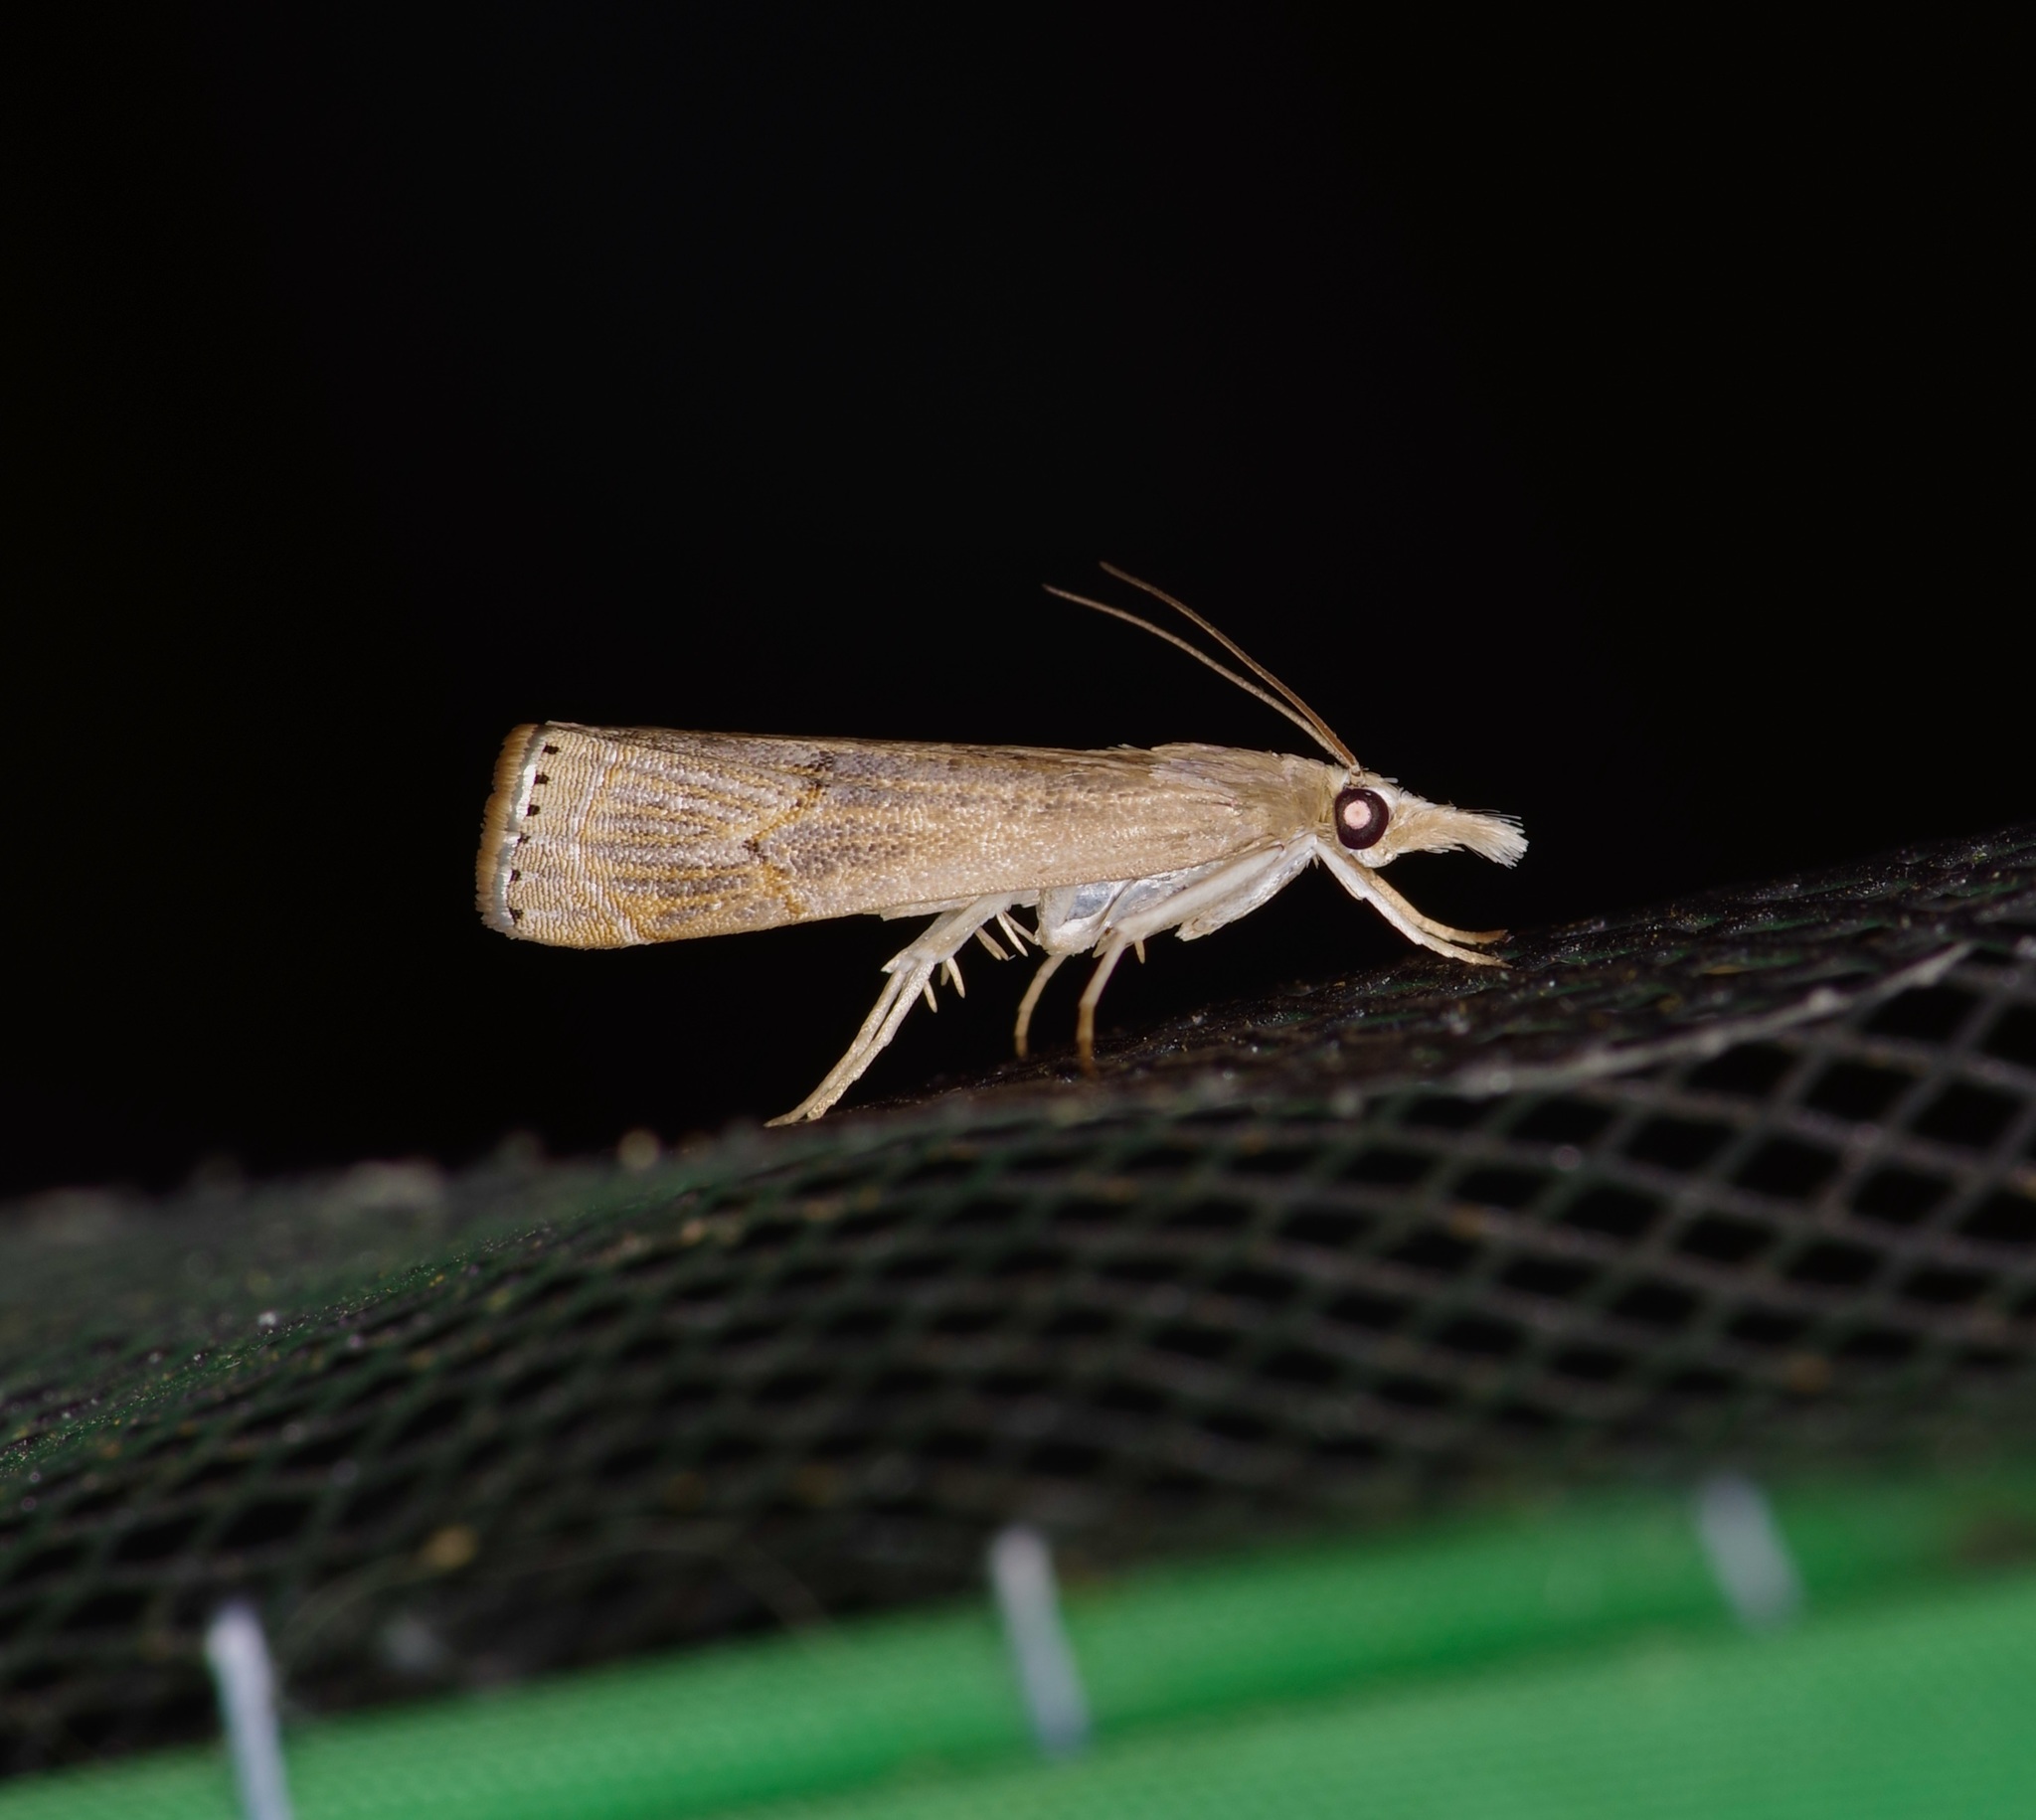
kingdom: Animalia
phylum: Arthropoda
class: Insecta
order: Lepidoptera
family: Crambidae
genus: Parapediasia
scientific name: Parapediasia teterellus
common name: Bluegrass webworm moth
